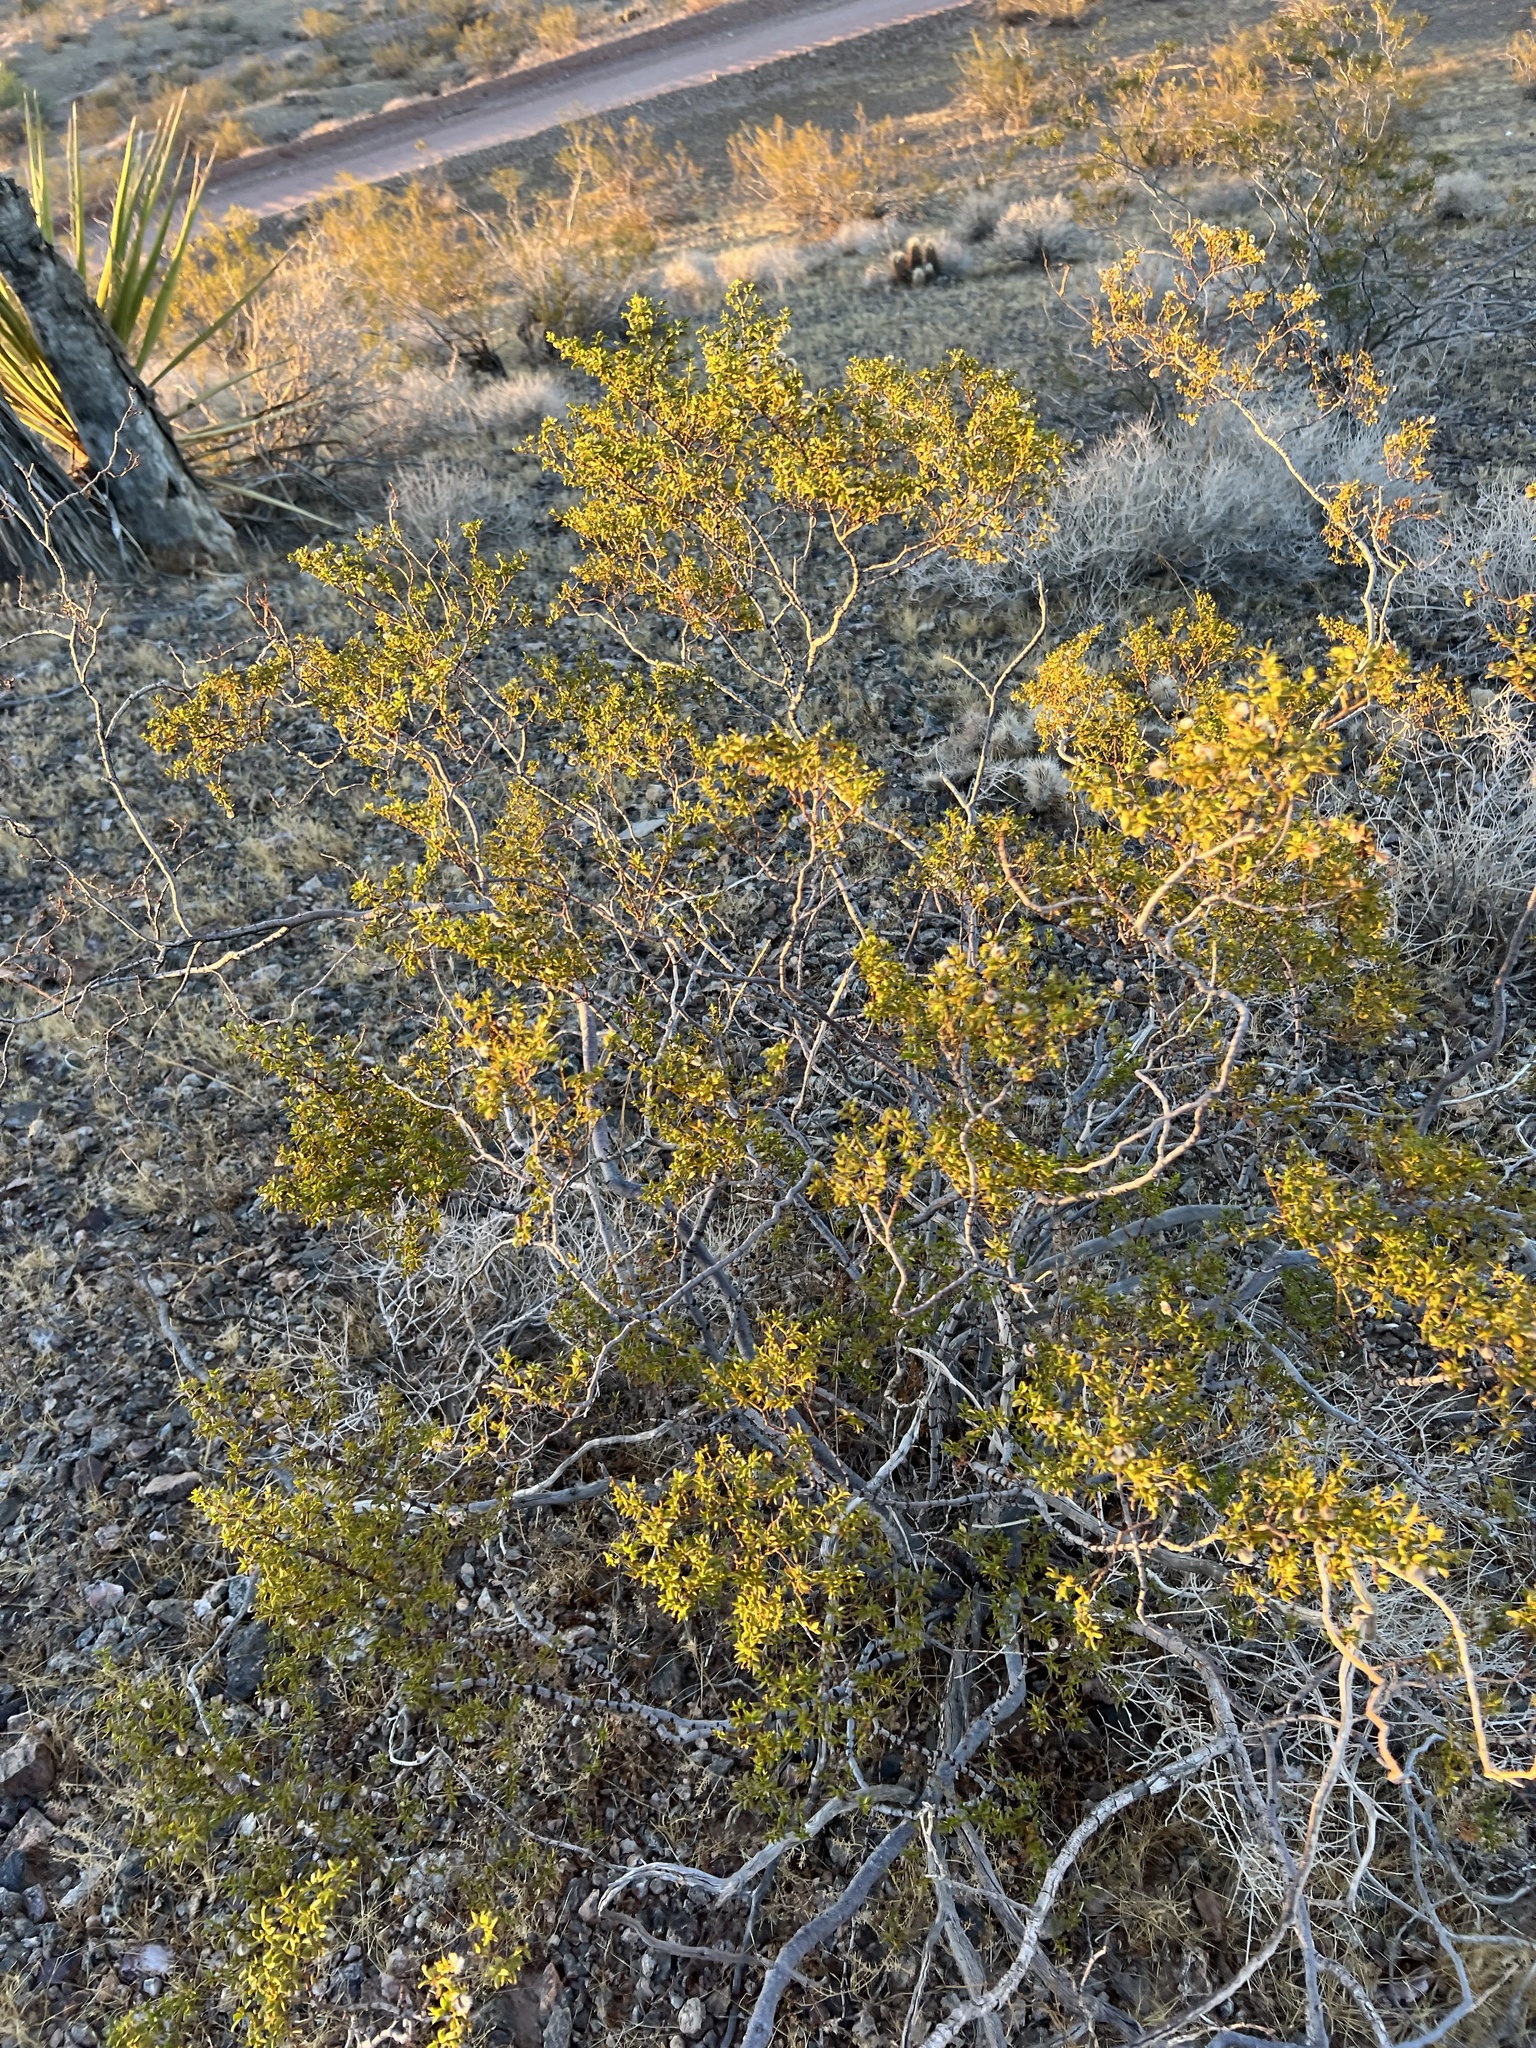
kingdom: Plantae
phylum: Tracheophyta
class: Magnoliopsida
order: Zygophyllales
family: Zygophyllaceae
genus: Larrea
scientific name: Larrea tridentata
